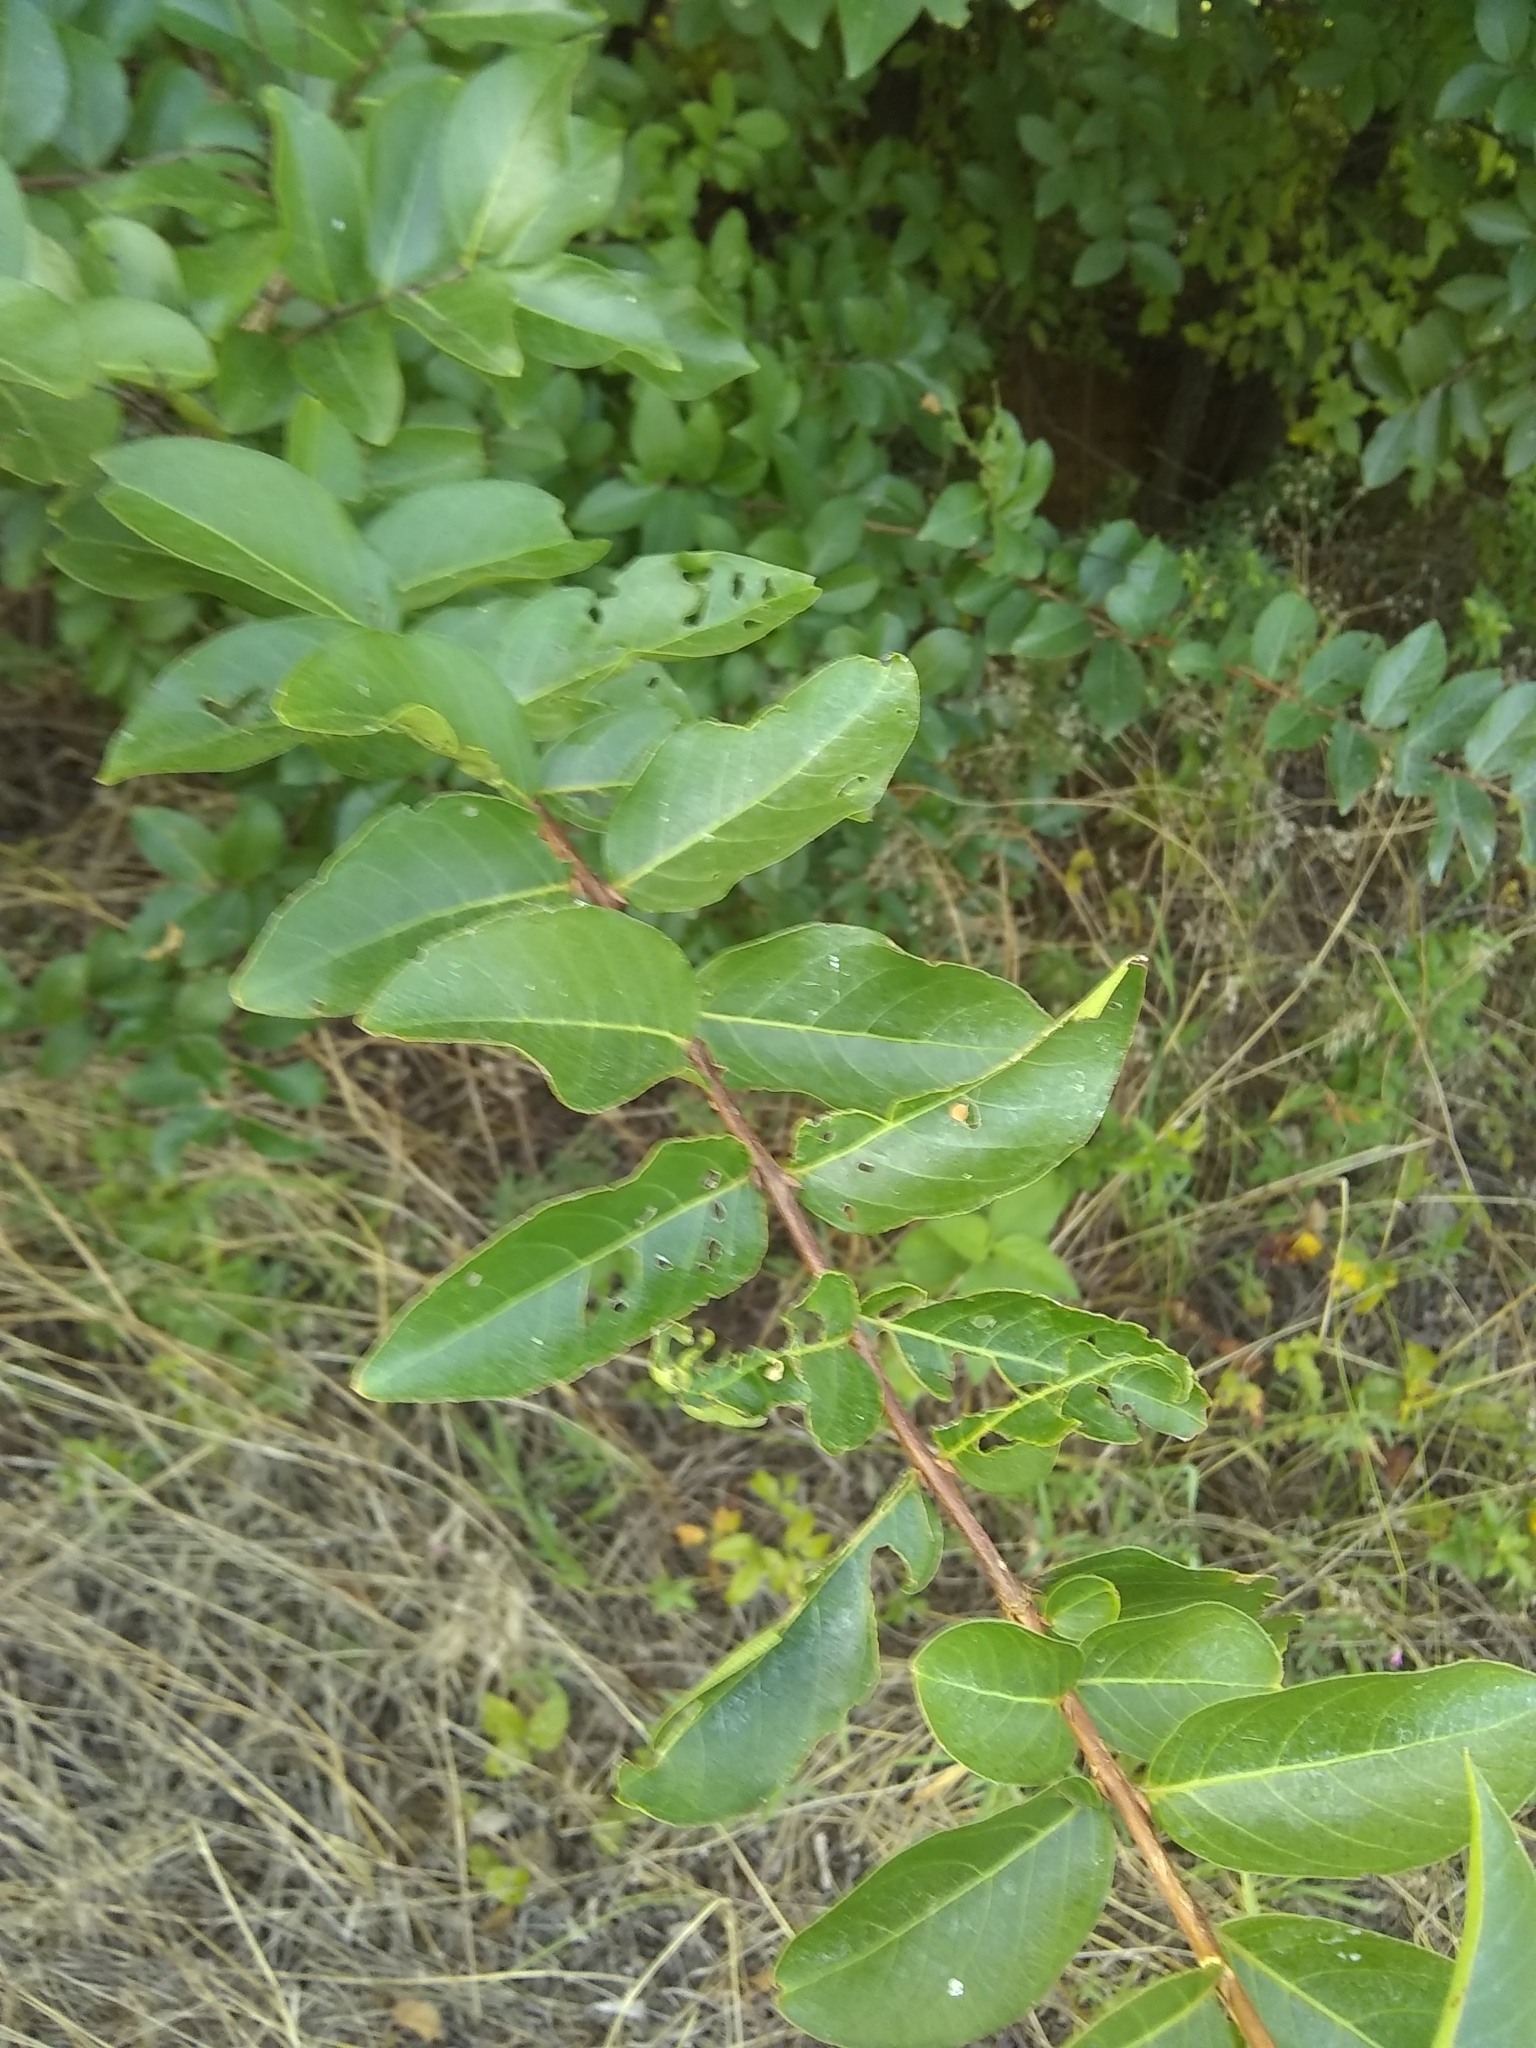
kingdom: Plantae
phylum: Tracheophyta
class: Magnoliopsida
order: Myrtales
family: Lythraceae
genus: Lagerstroemia
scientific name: Lagerstroemia indica
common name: Crape-myrtle
